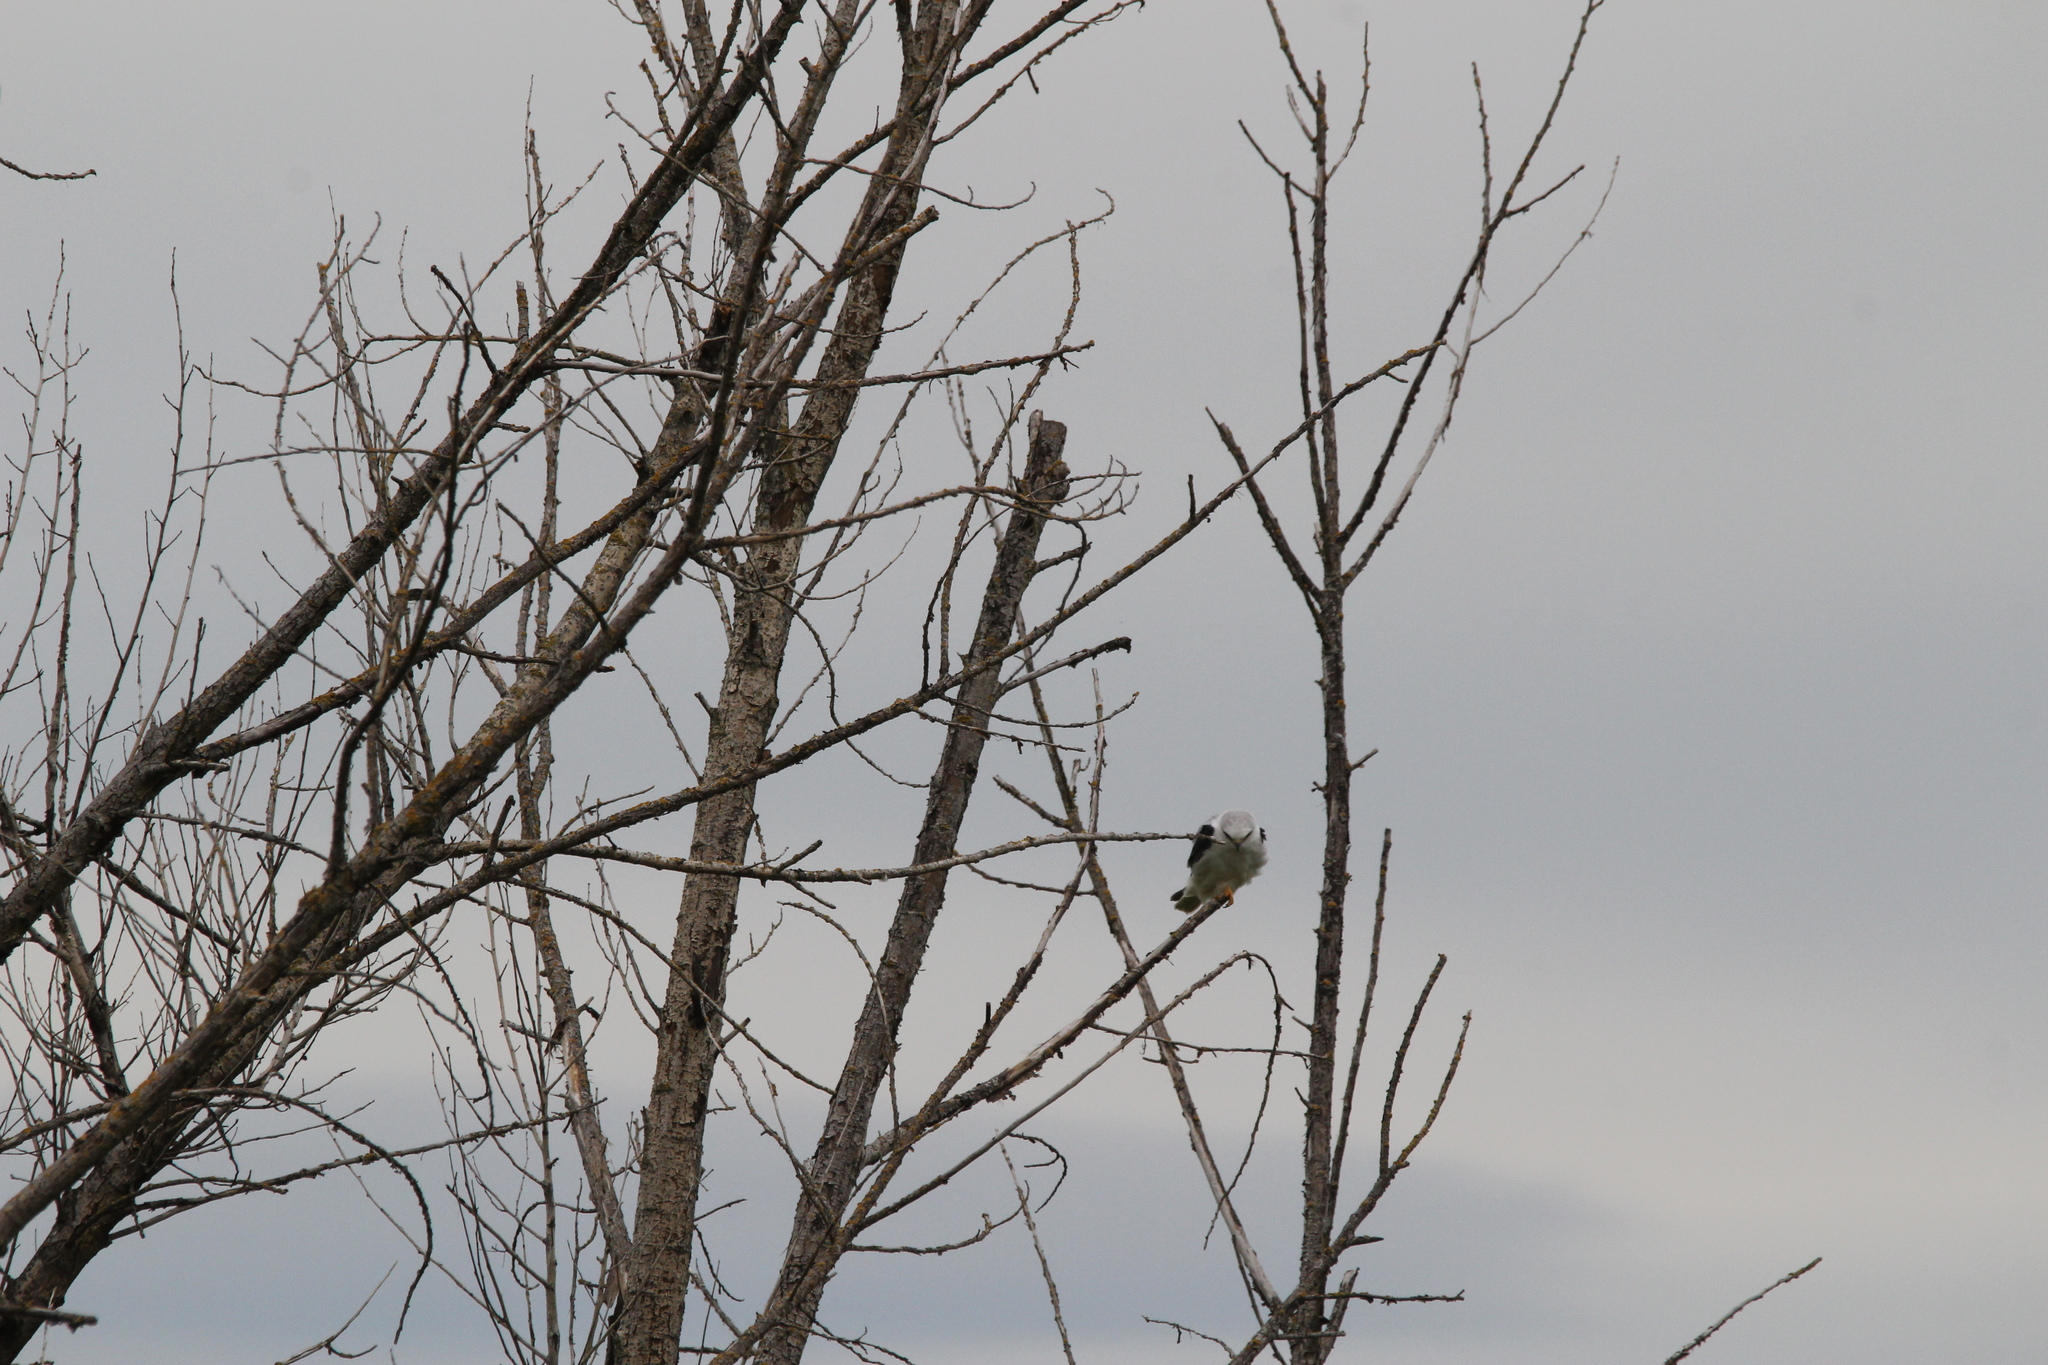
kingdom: Animalia
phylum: Chordata
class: Aves
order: Accipitriformes
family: Accipitridae
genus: Elanus
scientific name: Elanus leucurus
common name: White-tailed kite
